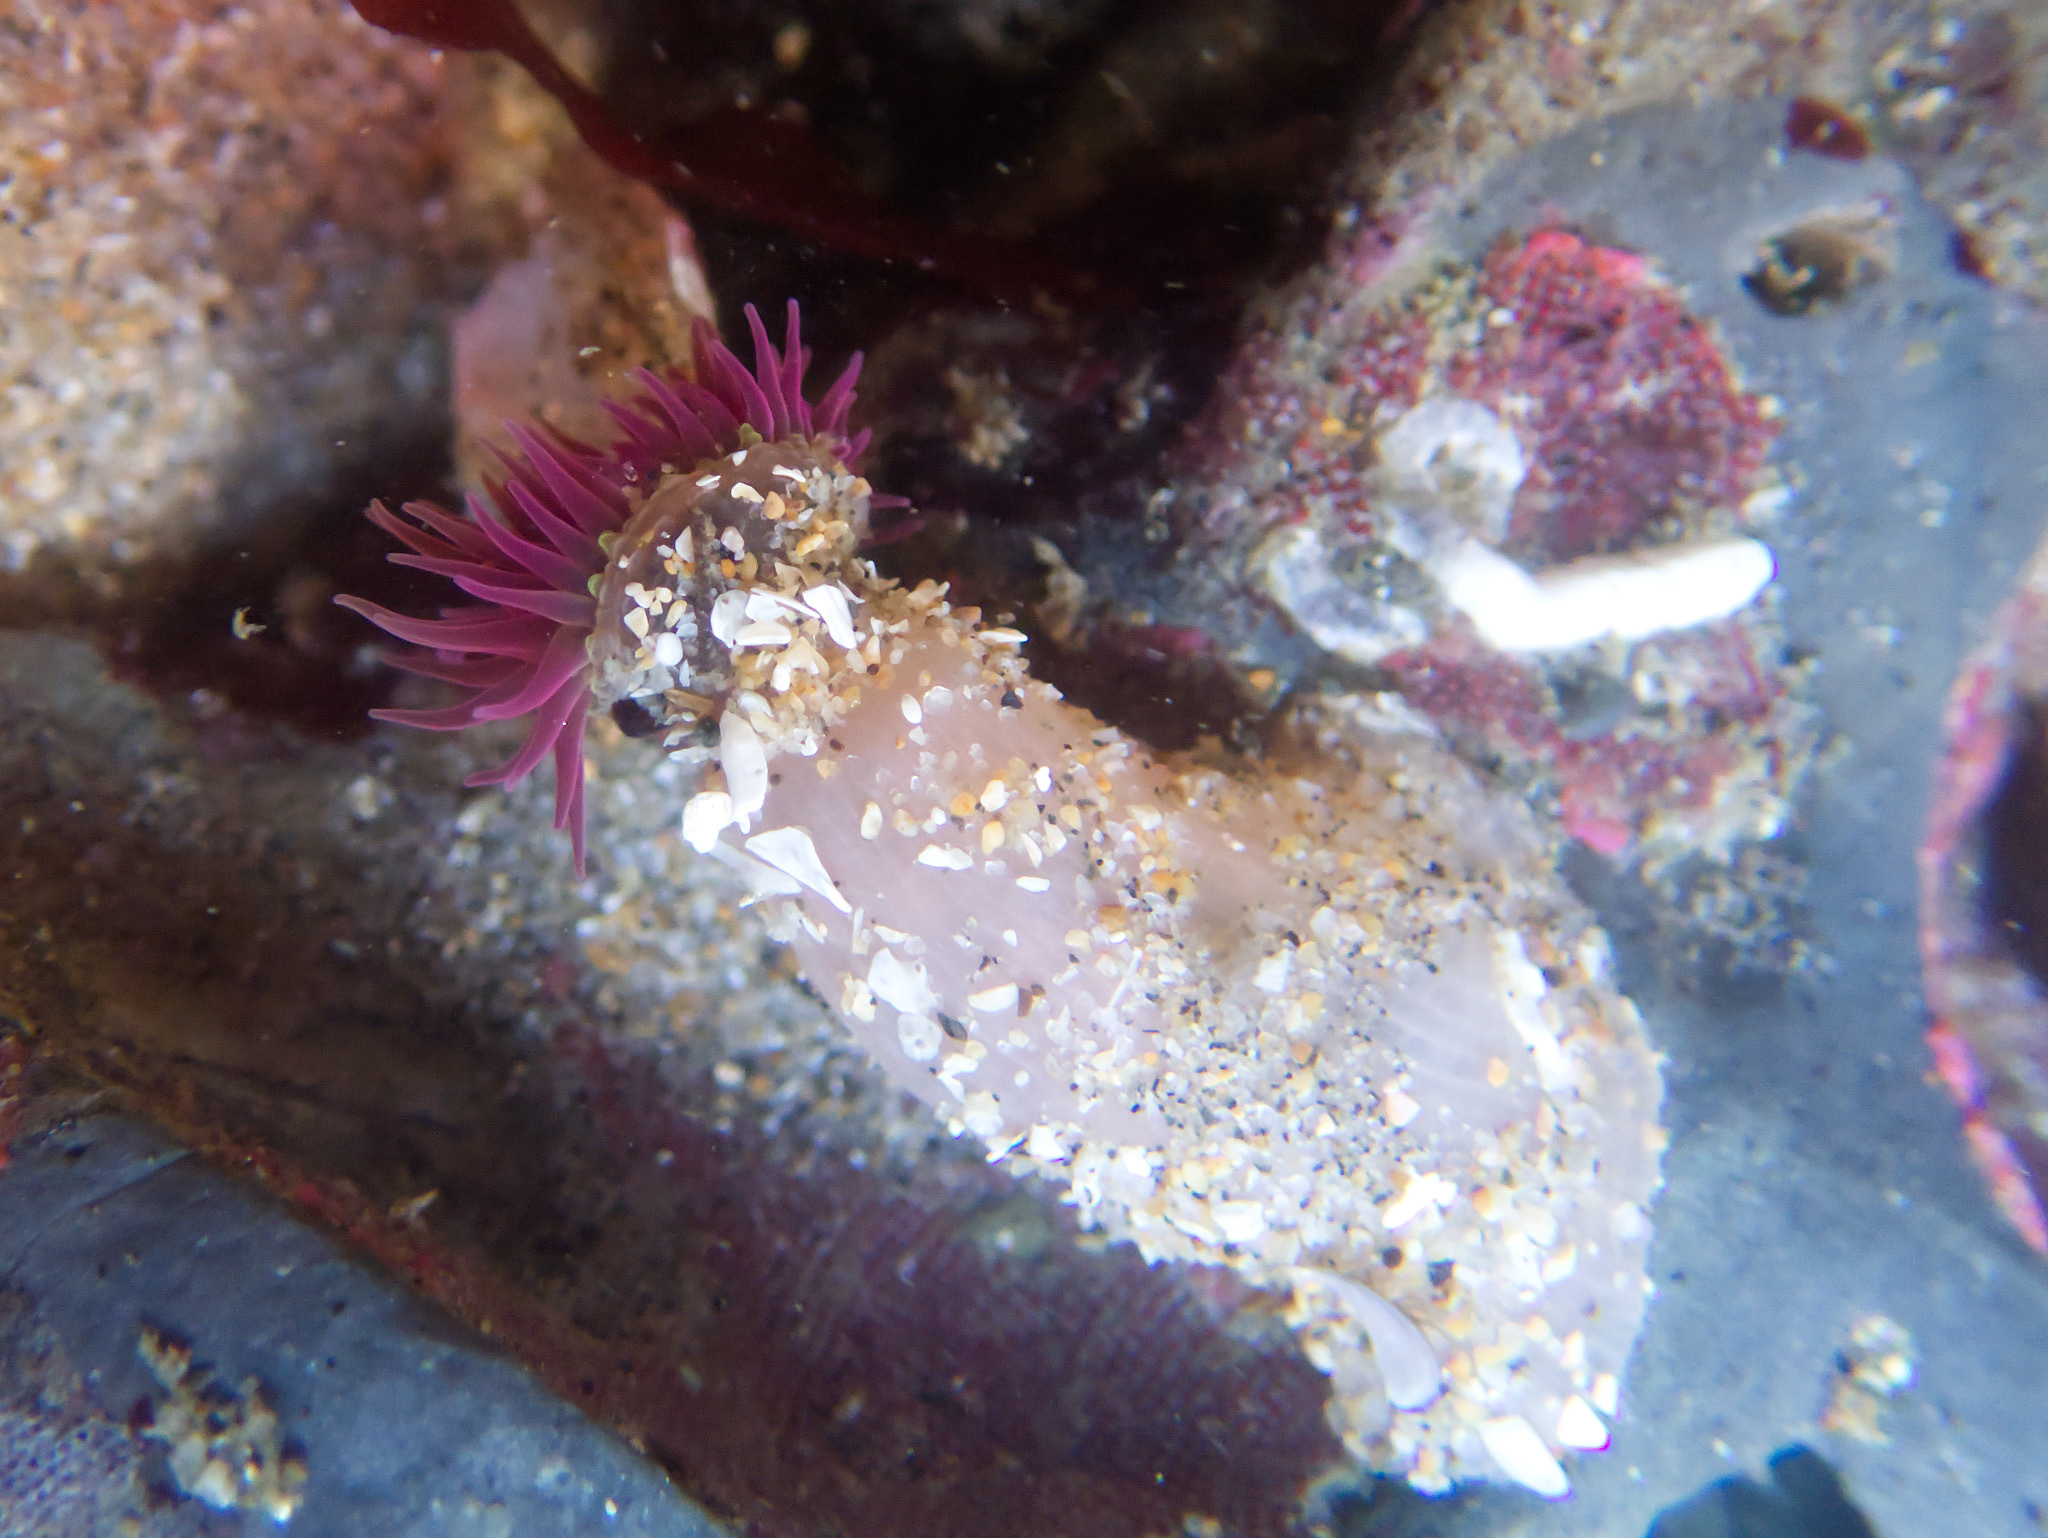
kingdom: Animalia
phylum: Cnidaria
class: Anthozoa
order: Actiniaria
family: Actiniidae
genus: Anthopleura
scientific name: Anthopleura artemisia
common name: Buried sea anemone
